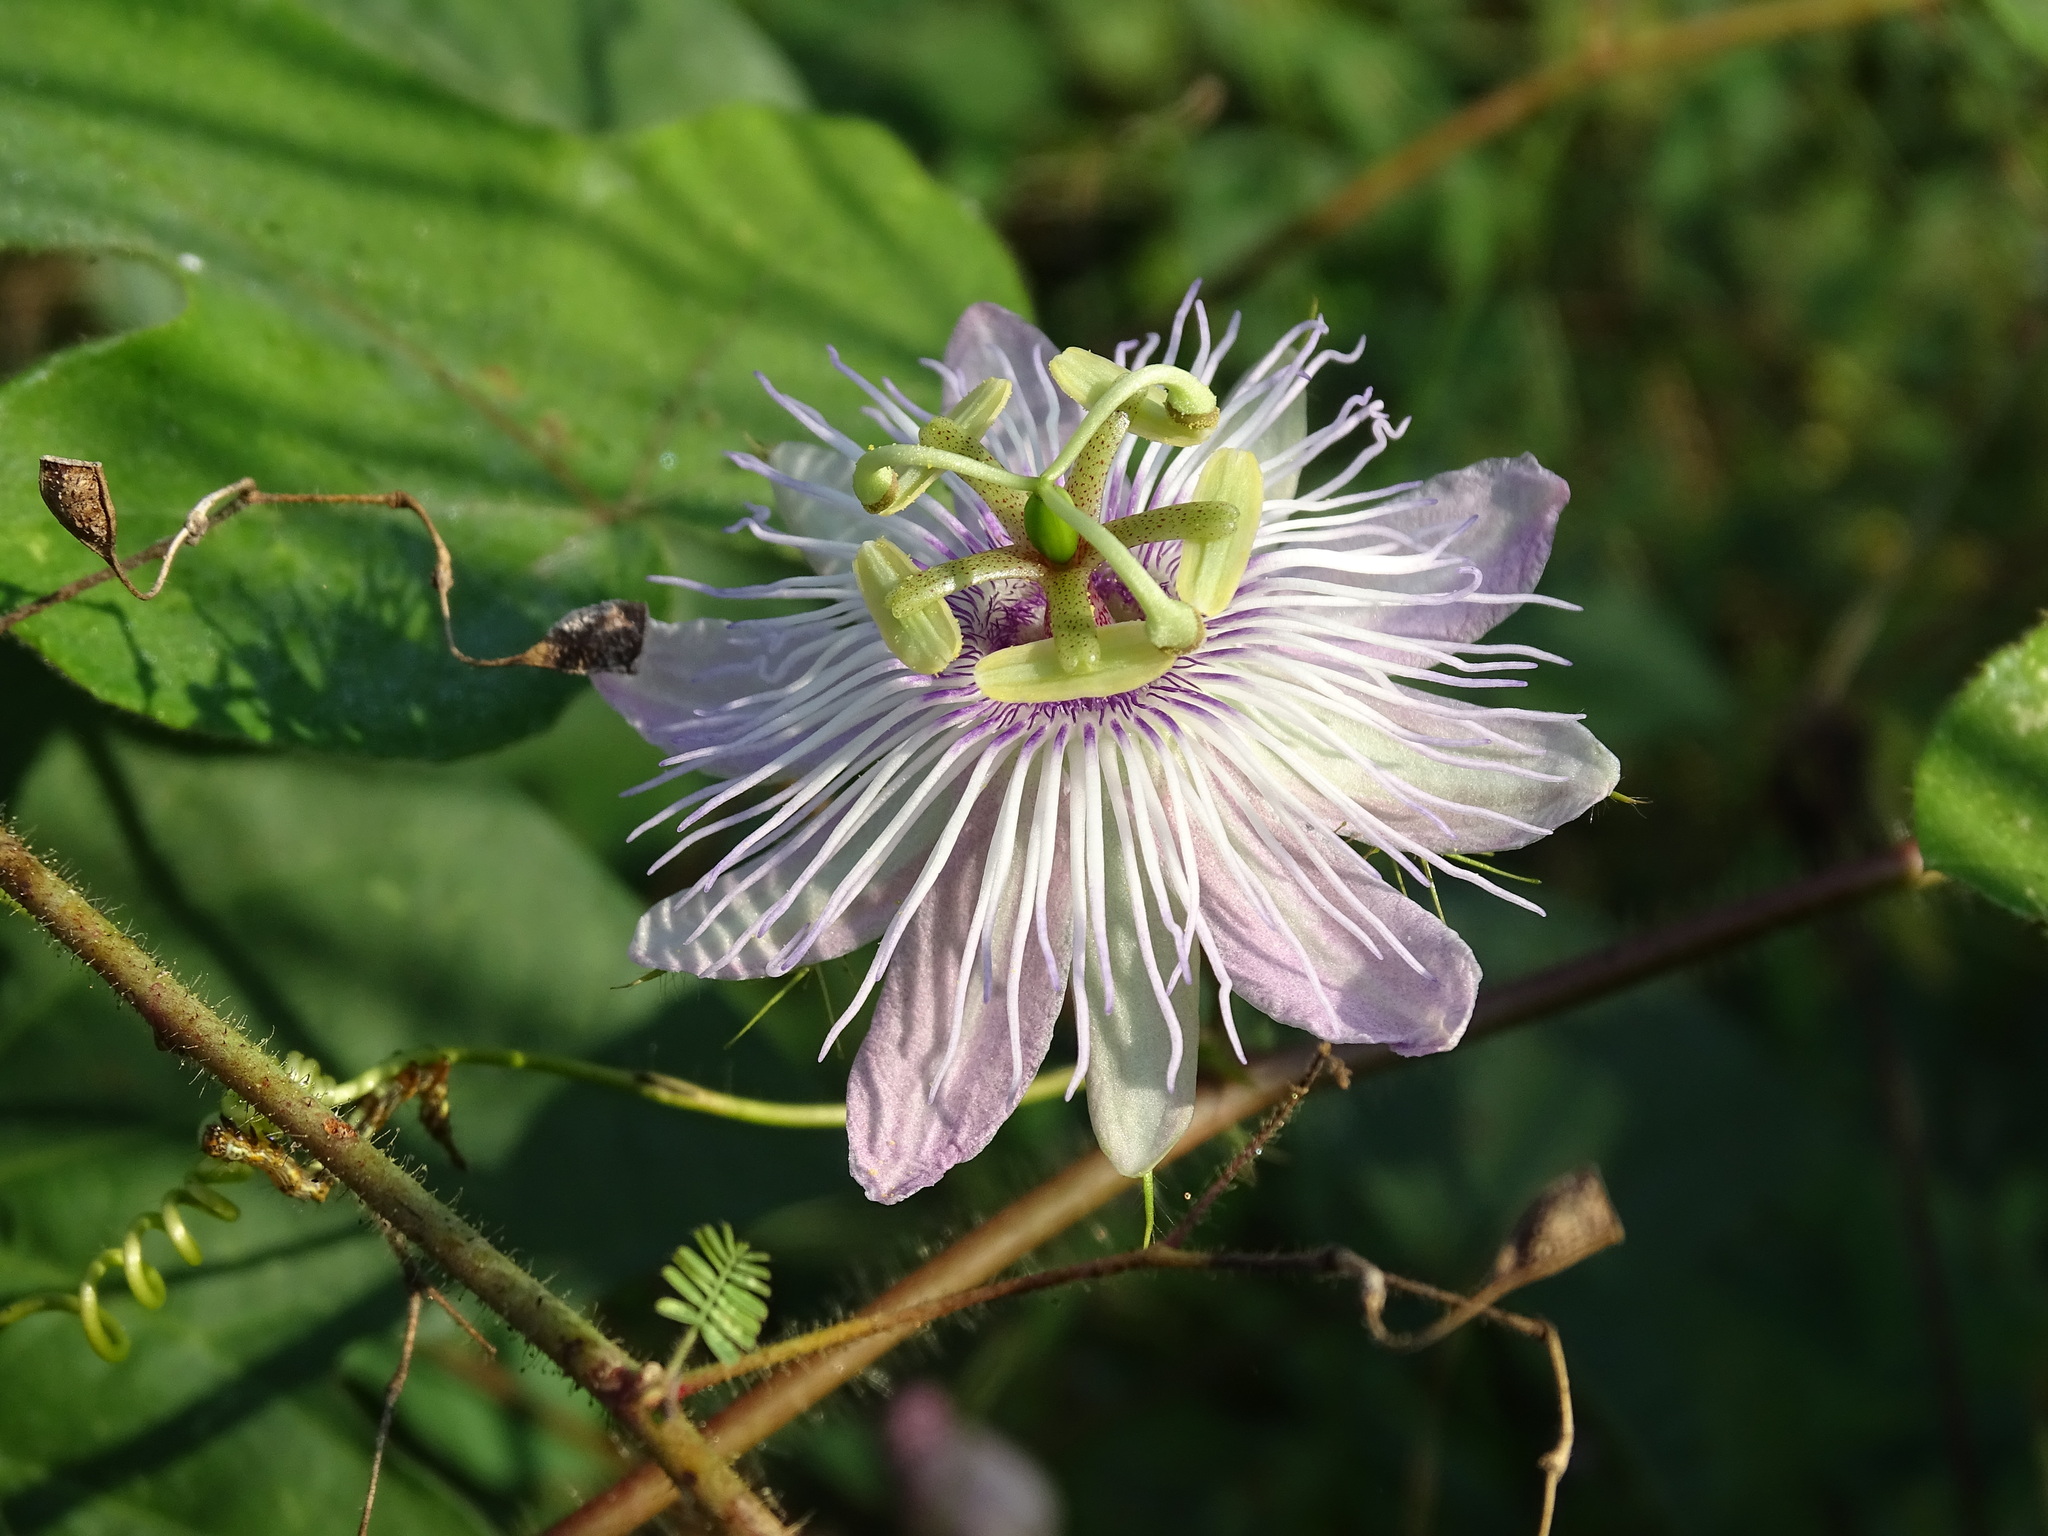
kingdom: Plantae
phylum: Tracheophyta
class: Magnoliopsida
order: Malpighiales
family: Passifloraceae
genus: Passiflora
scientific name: Passiflora
